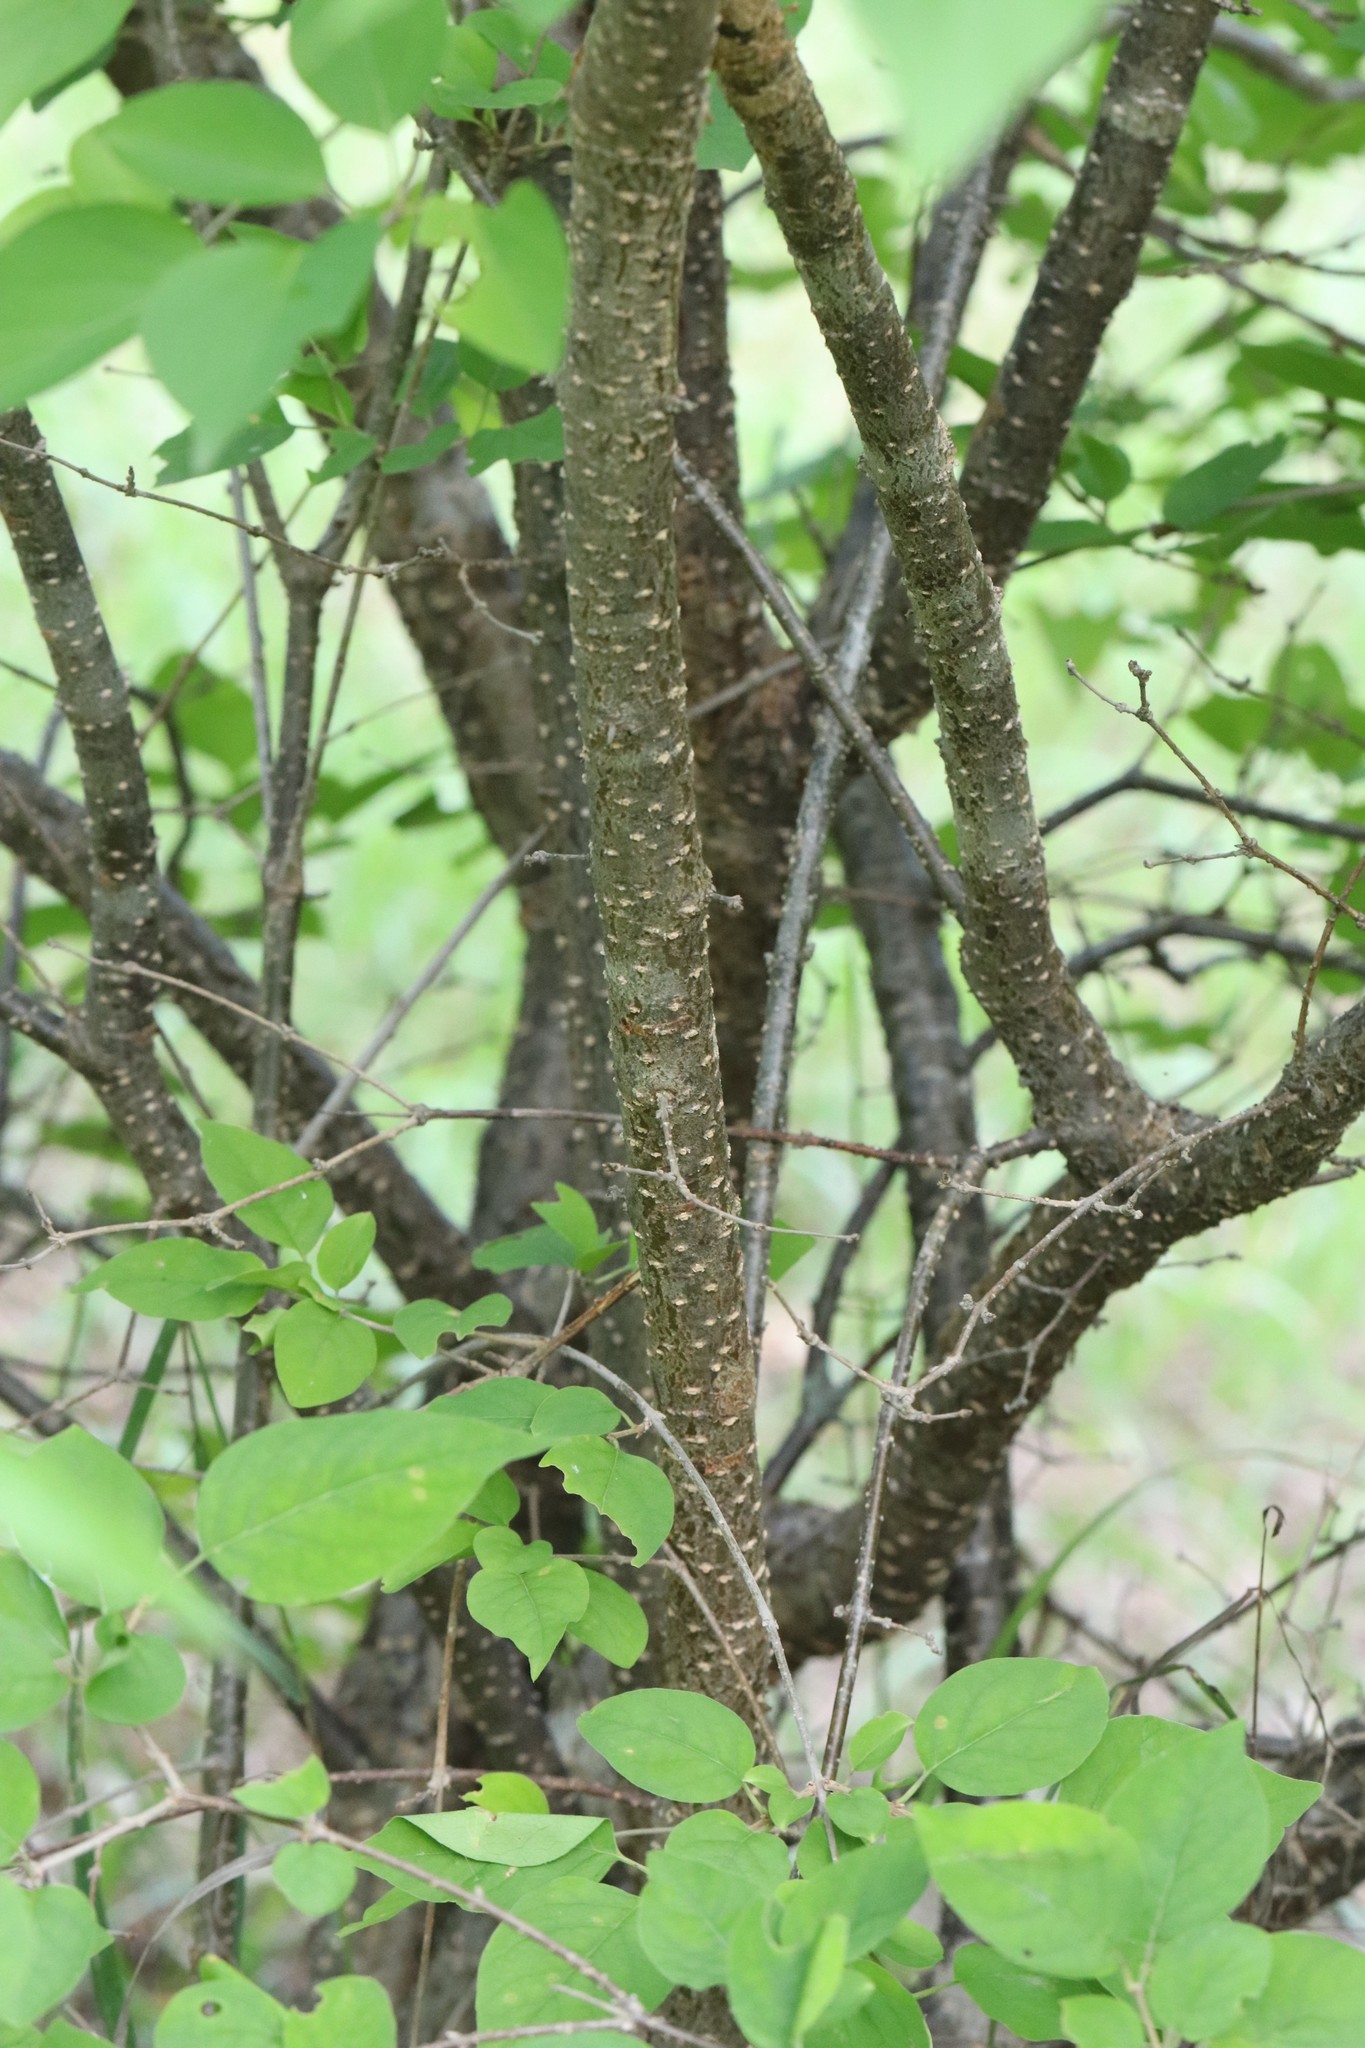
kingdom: Plantae
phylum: Tracheophyta
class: Magnoliopsida
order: Lamiales
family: Oleaceae
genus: Syringa
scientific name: Syringa reticulata
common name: Japanese tree lilac
